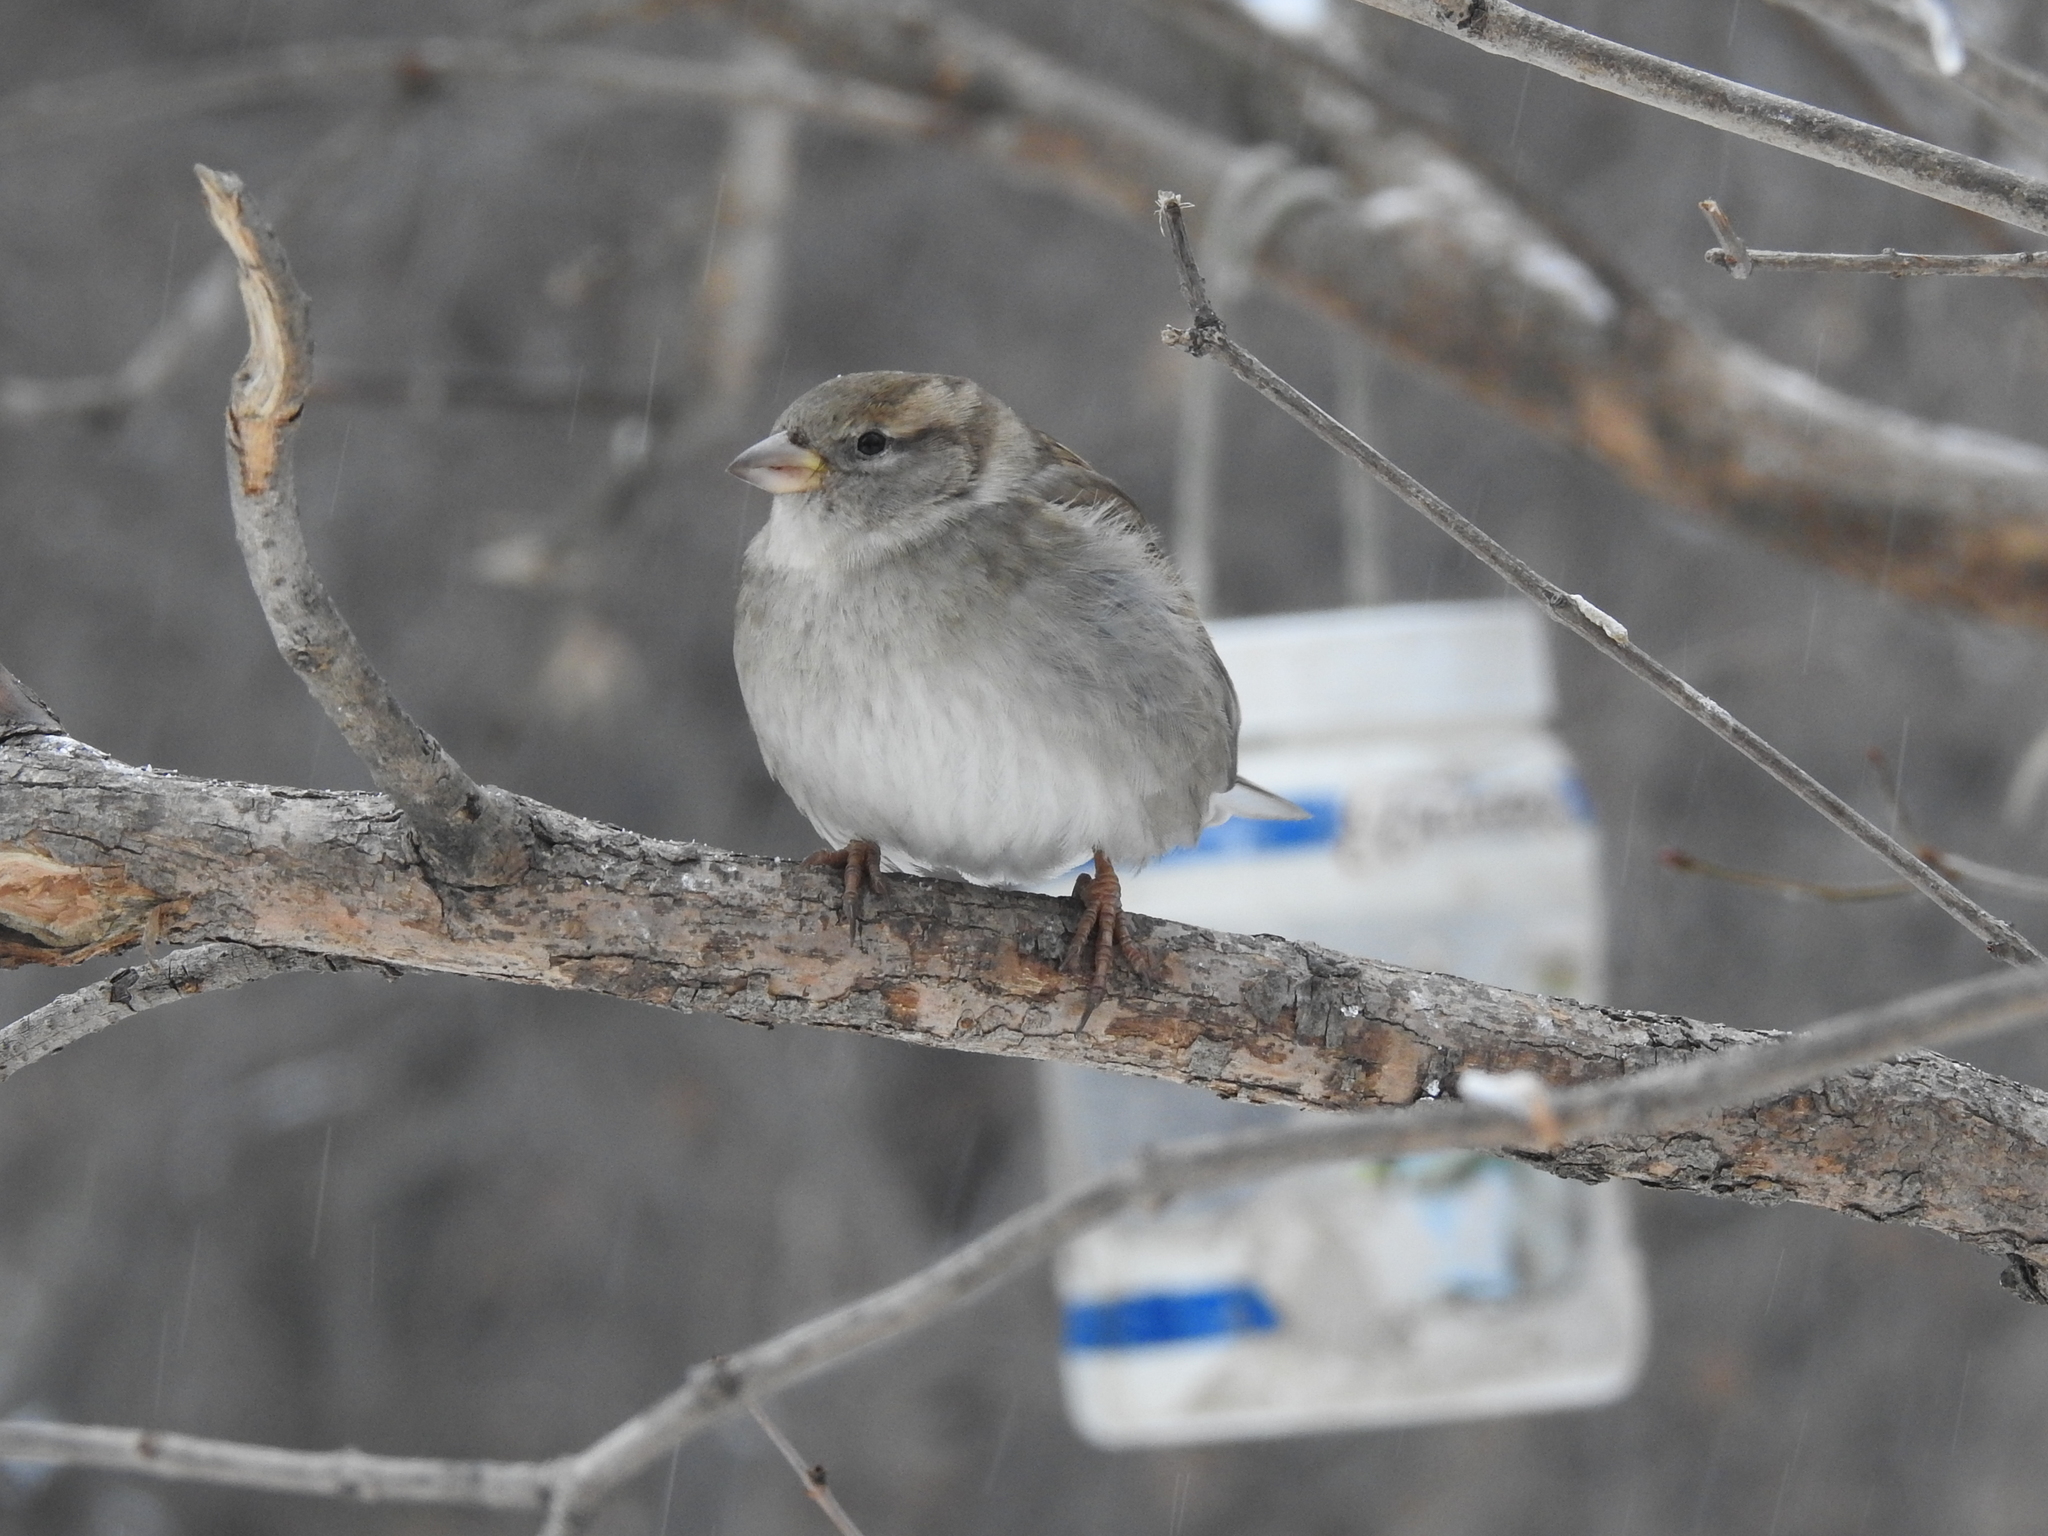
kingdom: Animalia
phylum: Chordata
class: Aves
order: Passeriformes
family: Passeridae
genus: Passer
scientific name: Passer domesticus
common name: House sparrow
